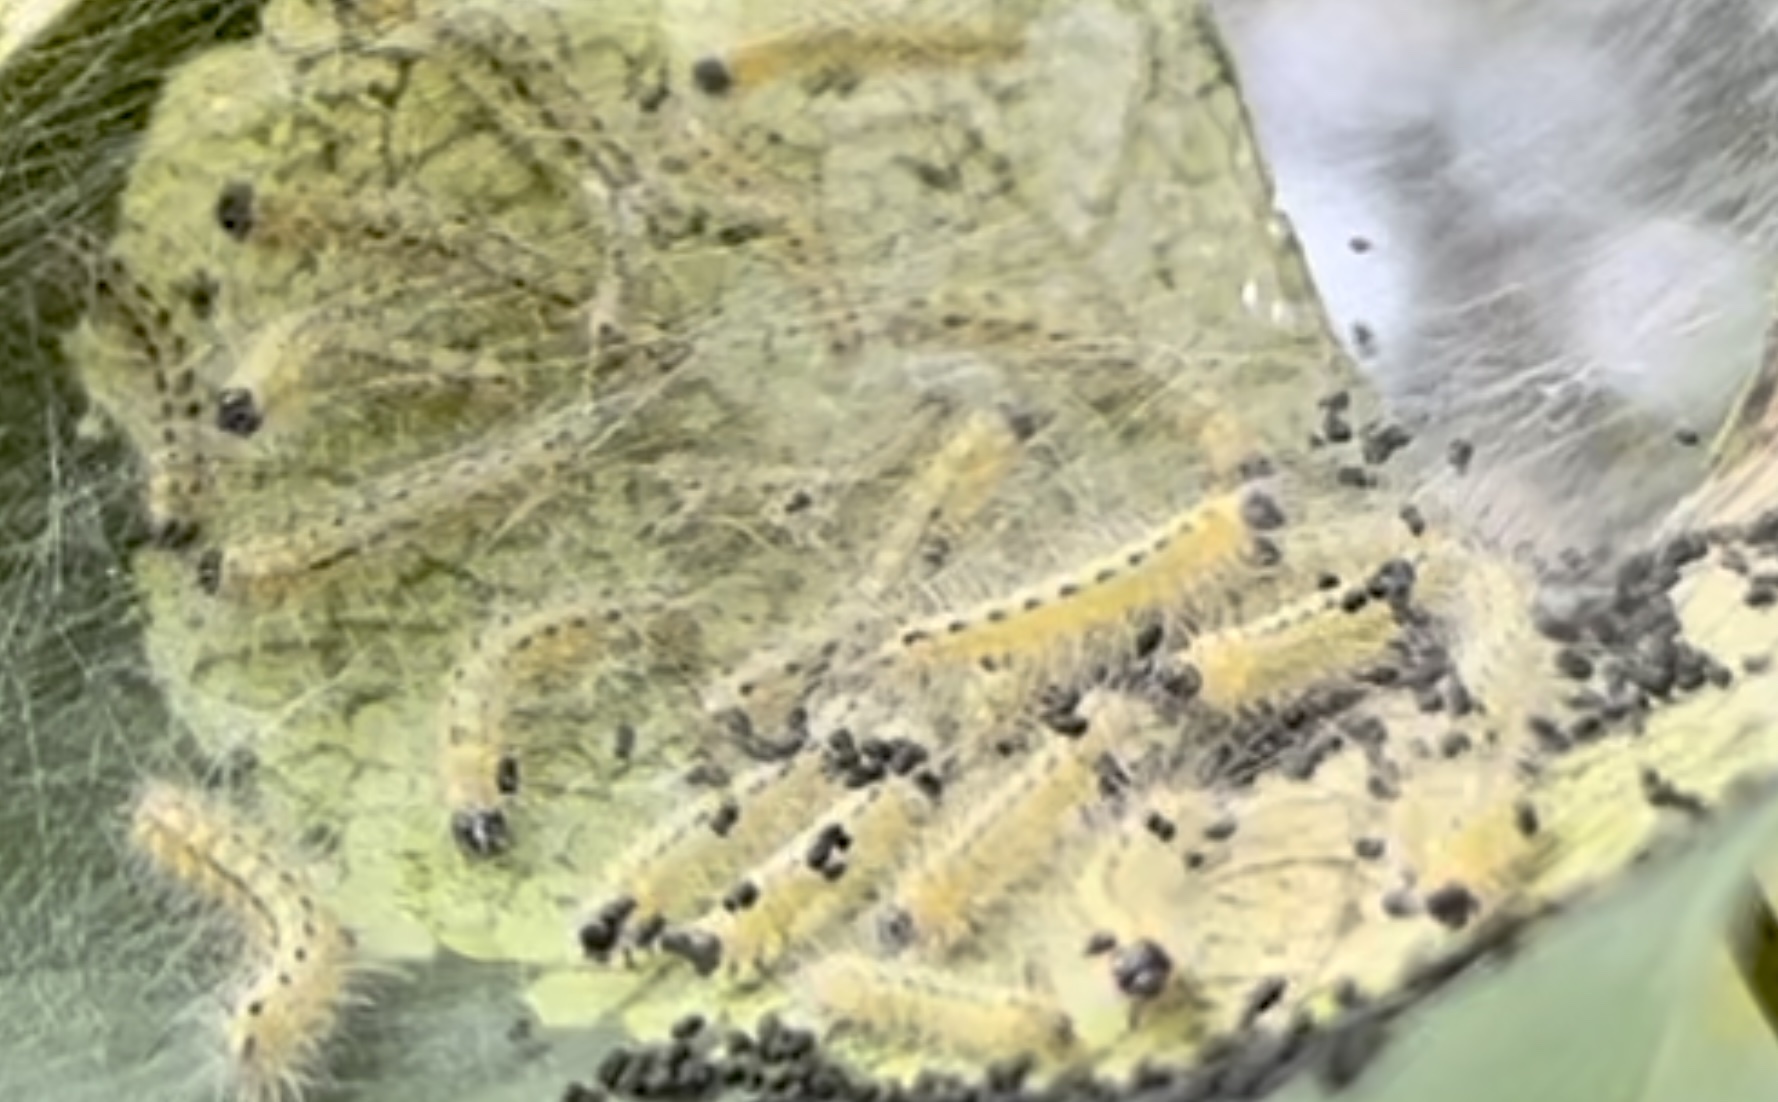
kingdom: Animalia
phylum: Arthropoda
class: Insecta
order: Lepidoptera
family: Erebidae
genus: Hyphantria
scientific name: Hyphantria cunea
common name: American white moth
